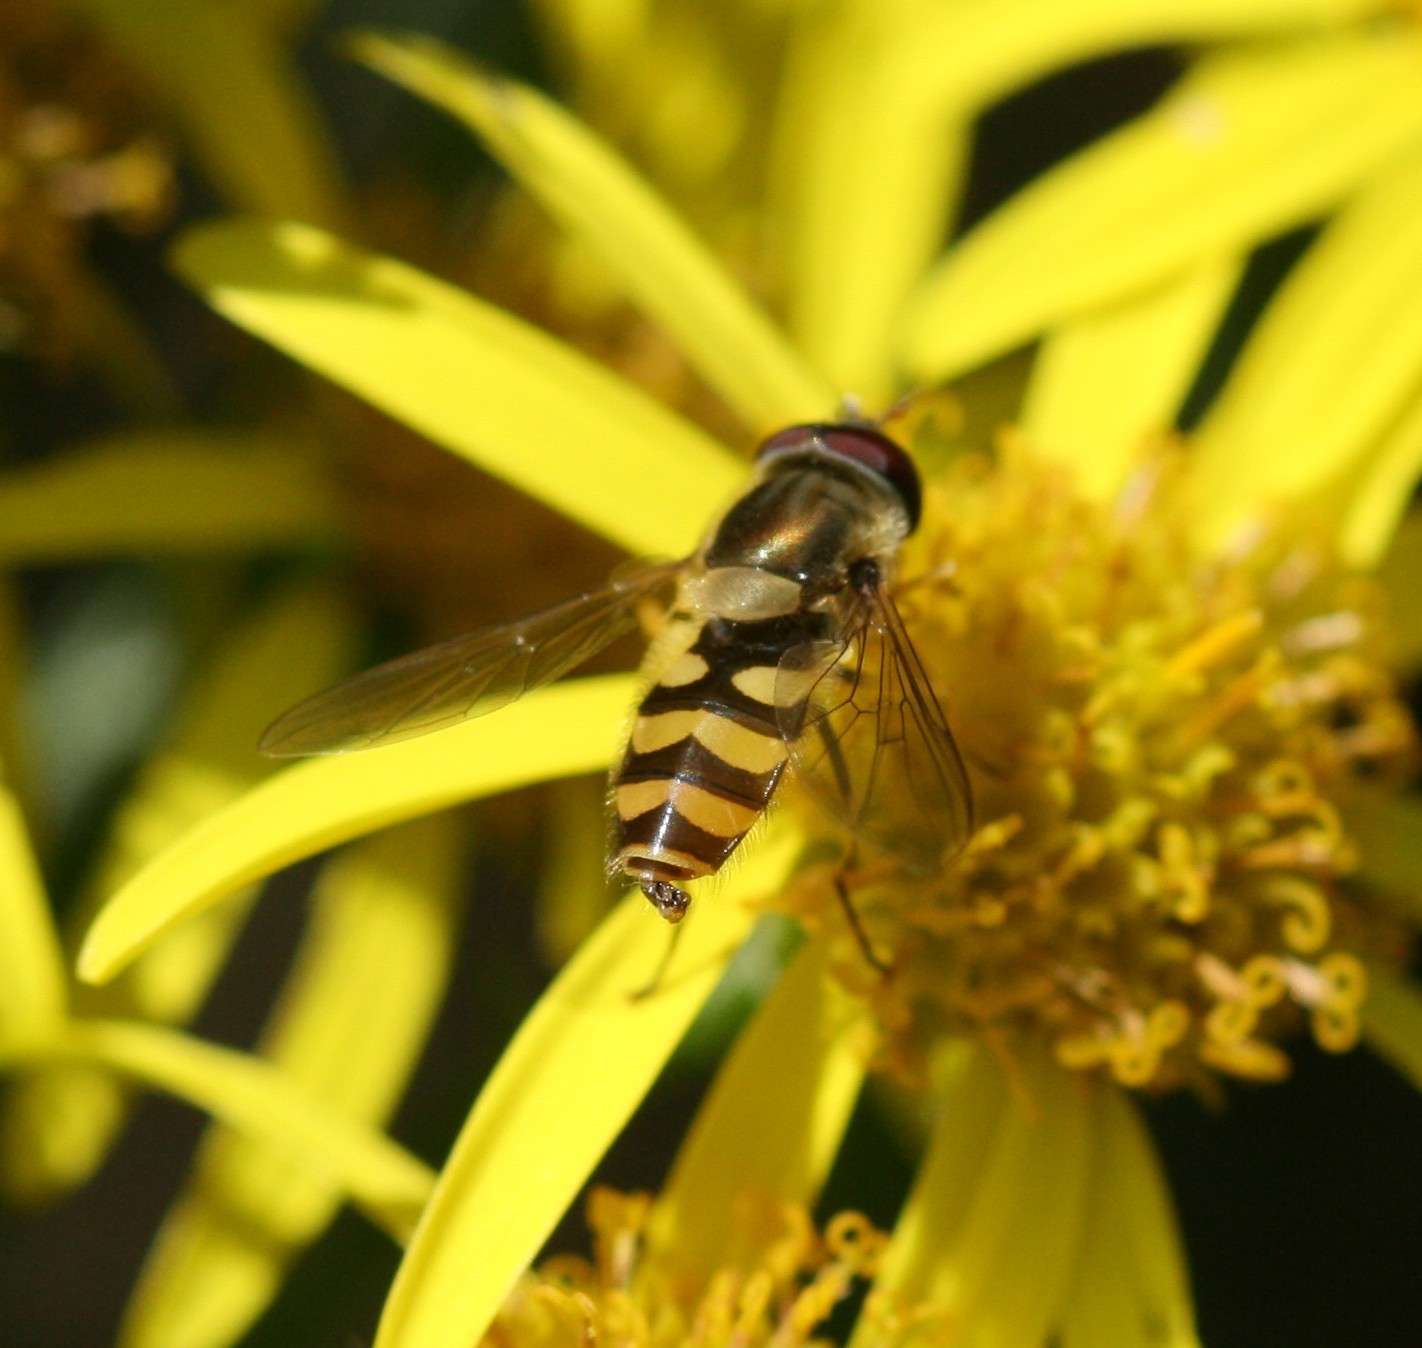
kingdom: Animalia
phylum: Arthropoda
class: Insecta
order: Diptera
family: Syrphidae
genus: Syrphus
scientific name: Syrphus
